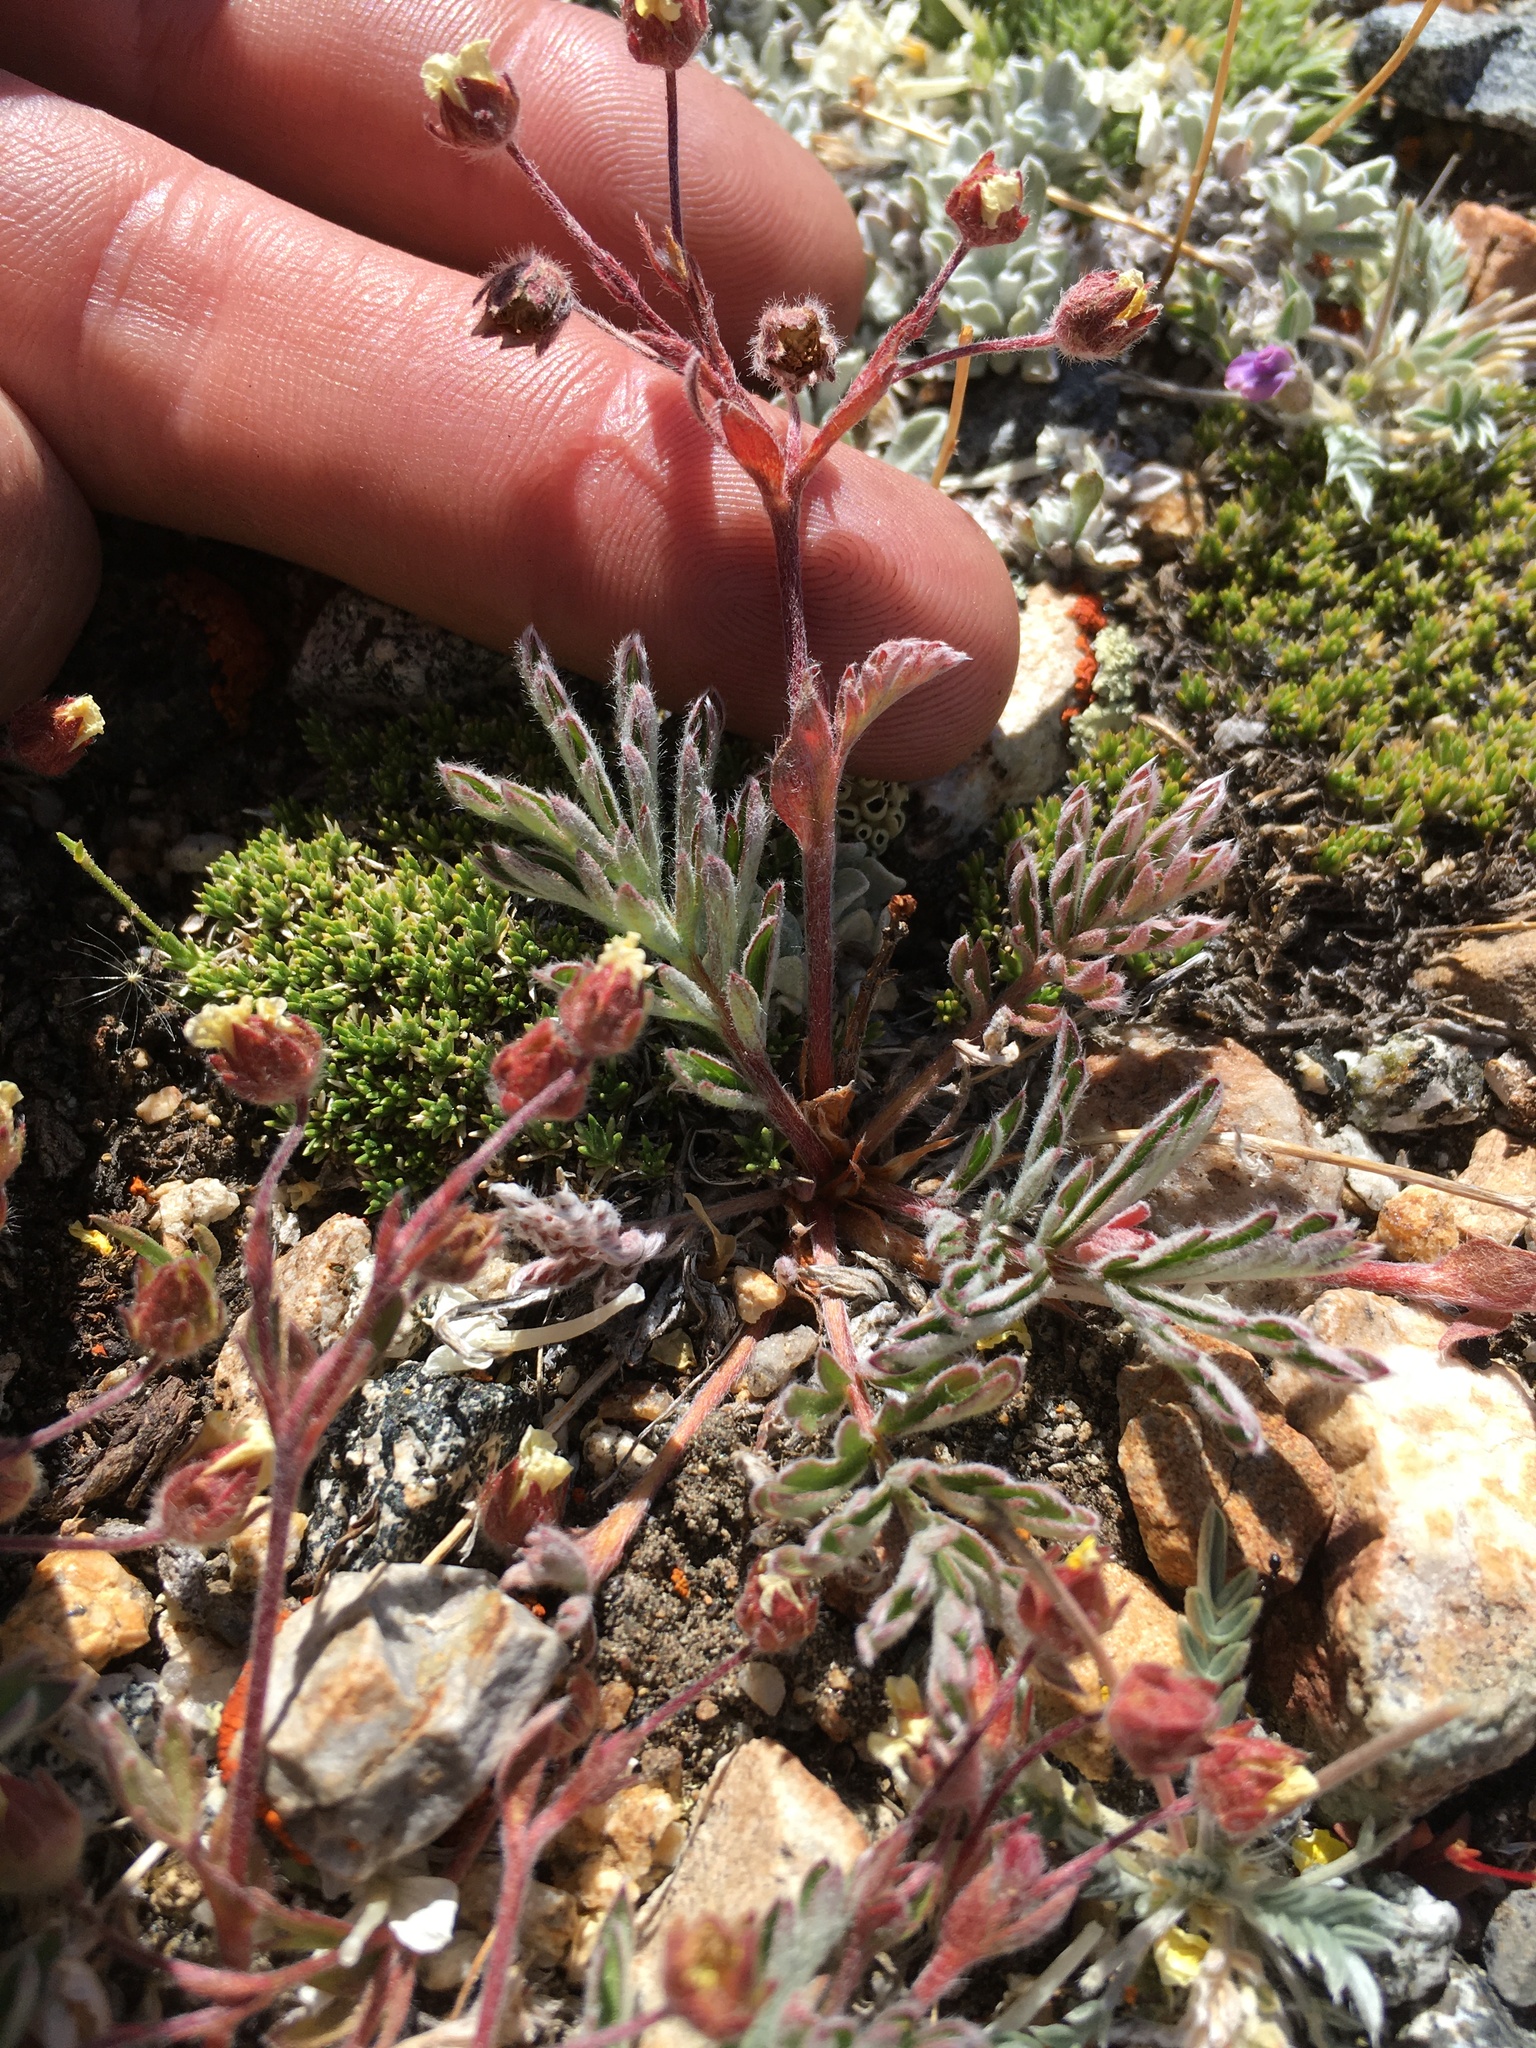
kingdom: Plantae
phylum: Tracheophyta
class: Magnoliopsida
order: Rosales
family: Rosaceae
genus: Potentilla
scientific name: Potentilla morefieldii
